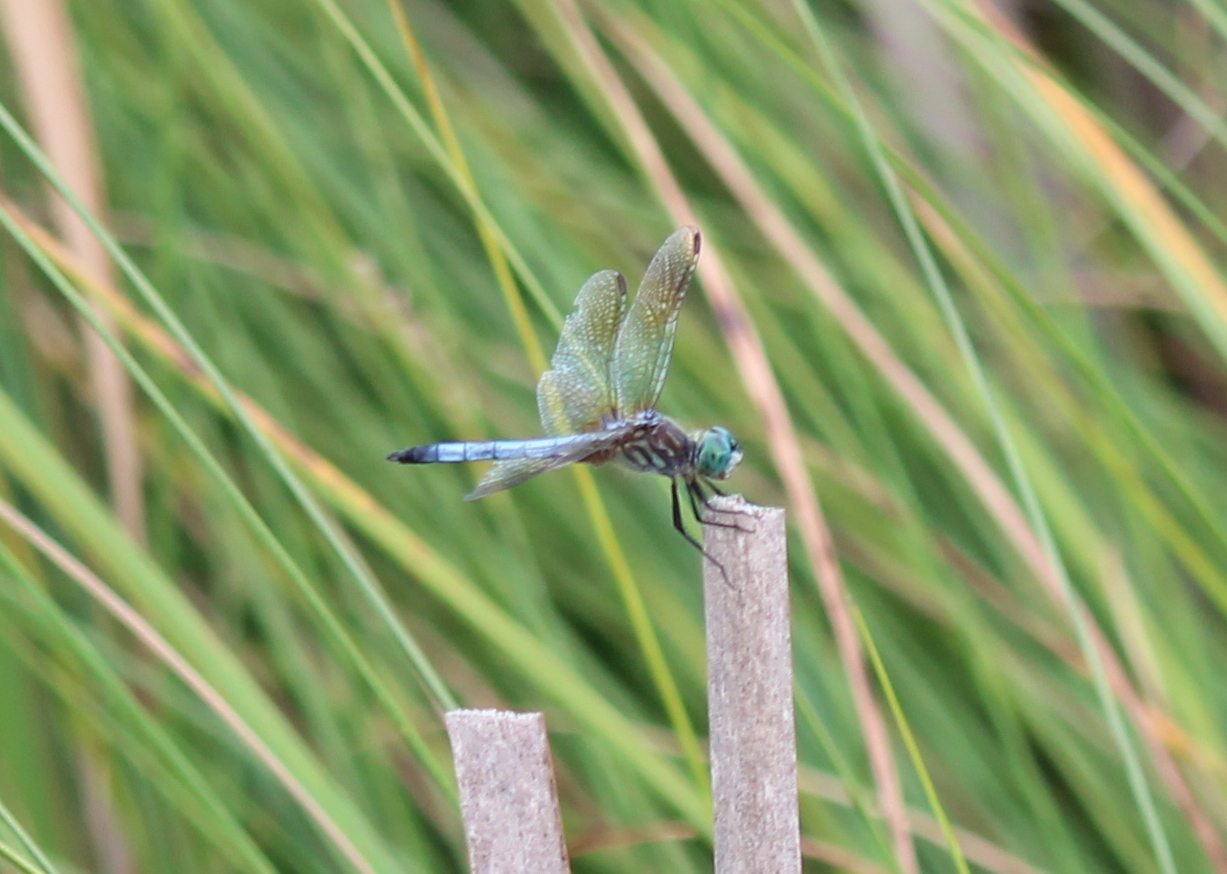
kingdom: Animalia
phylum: Arthropoda
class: Insecta
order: Odonata
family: Libellulidae
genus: Pachydiplax
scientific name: Pachydiplax longipennis
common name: Blue dasher
